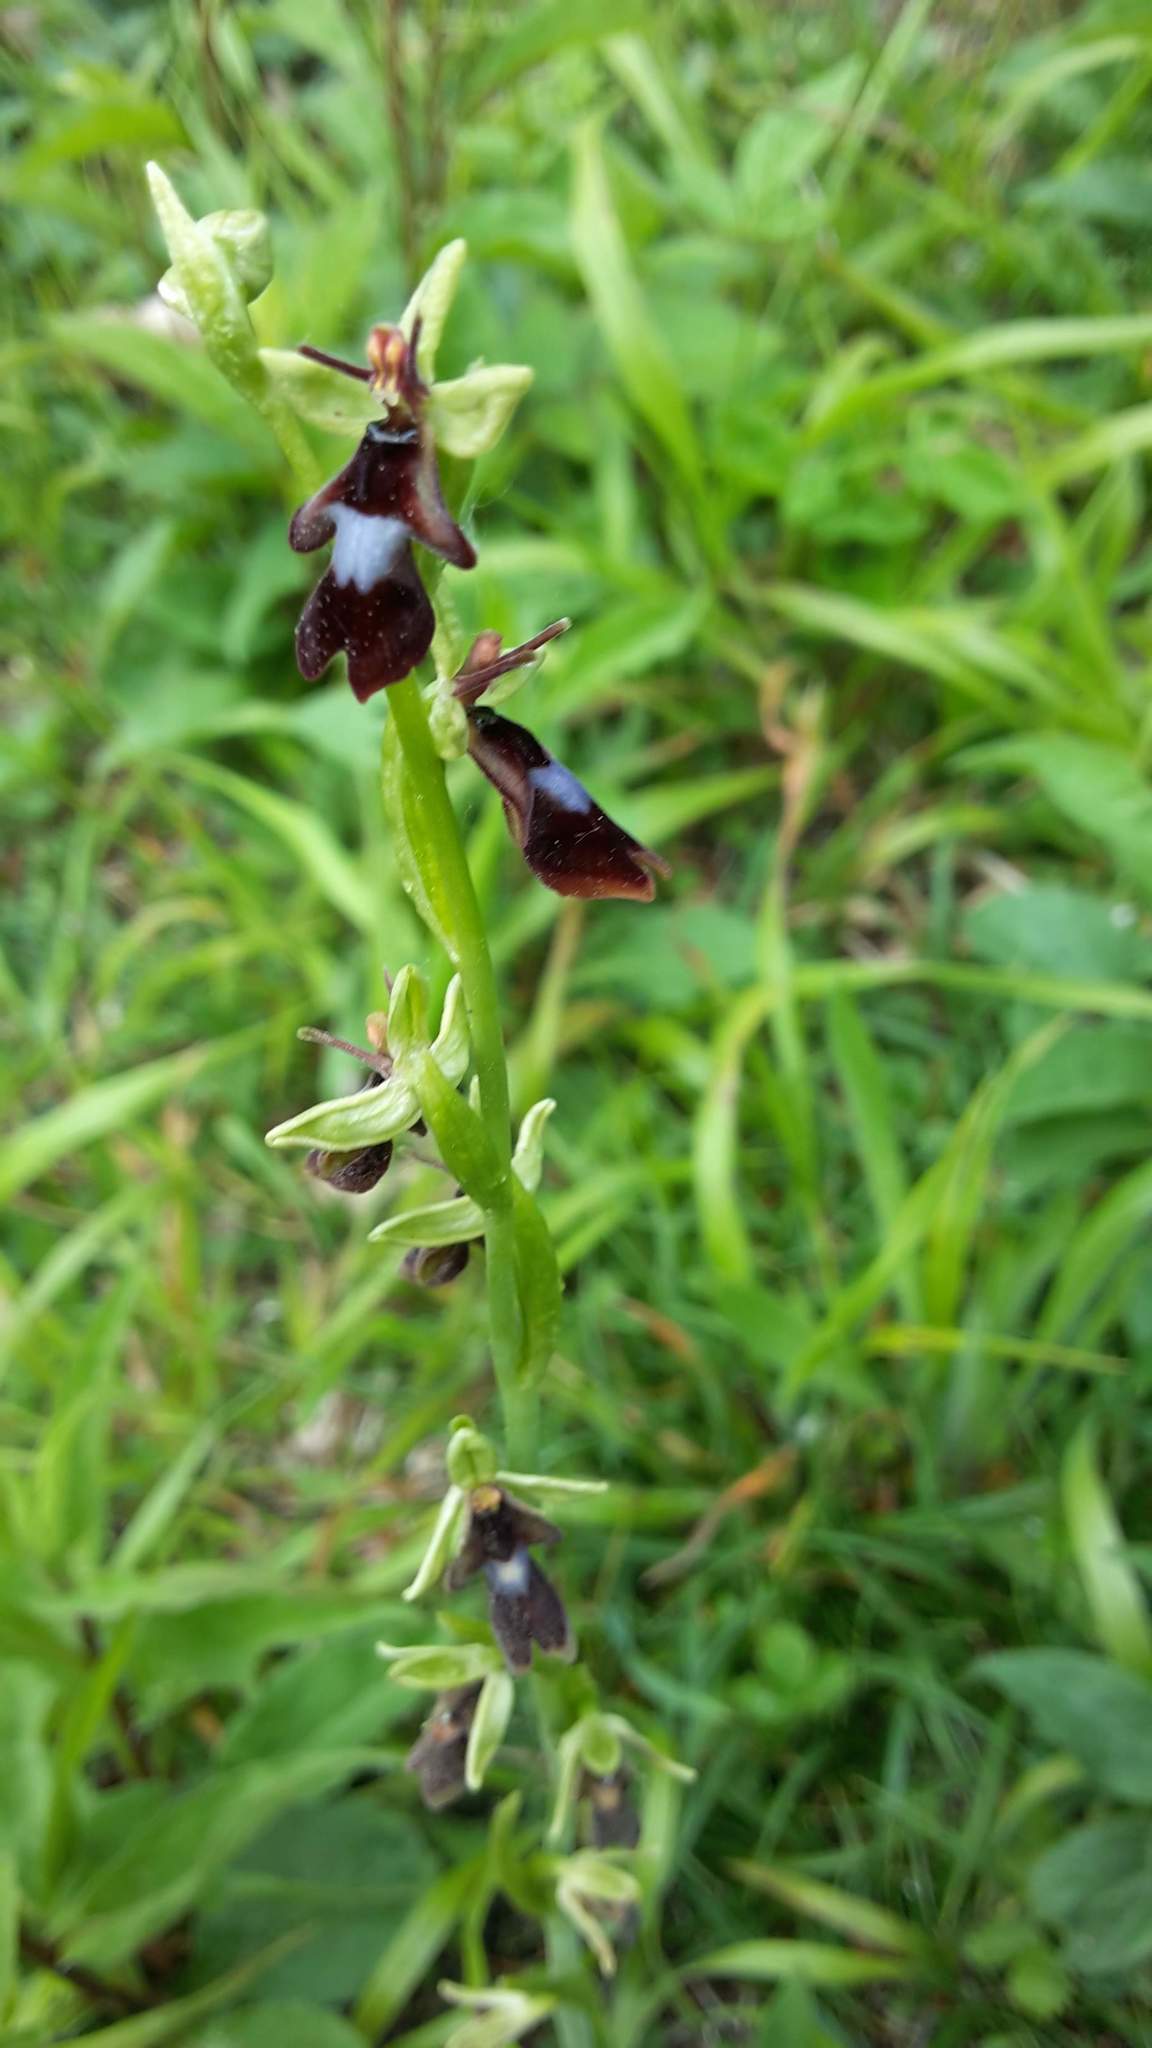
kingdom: Plantae
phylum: Tracheophyta
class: Liliopsida
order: Asparagales
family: Orchidaceae
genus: Ophrys
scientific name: Ophrys insectifera
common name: Fly orchid
